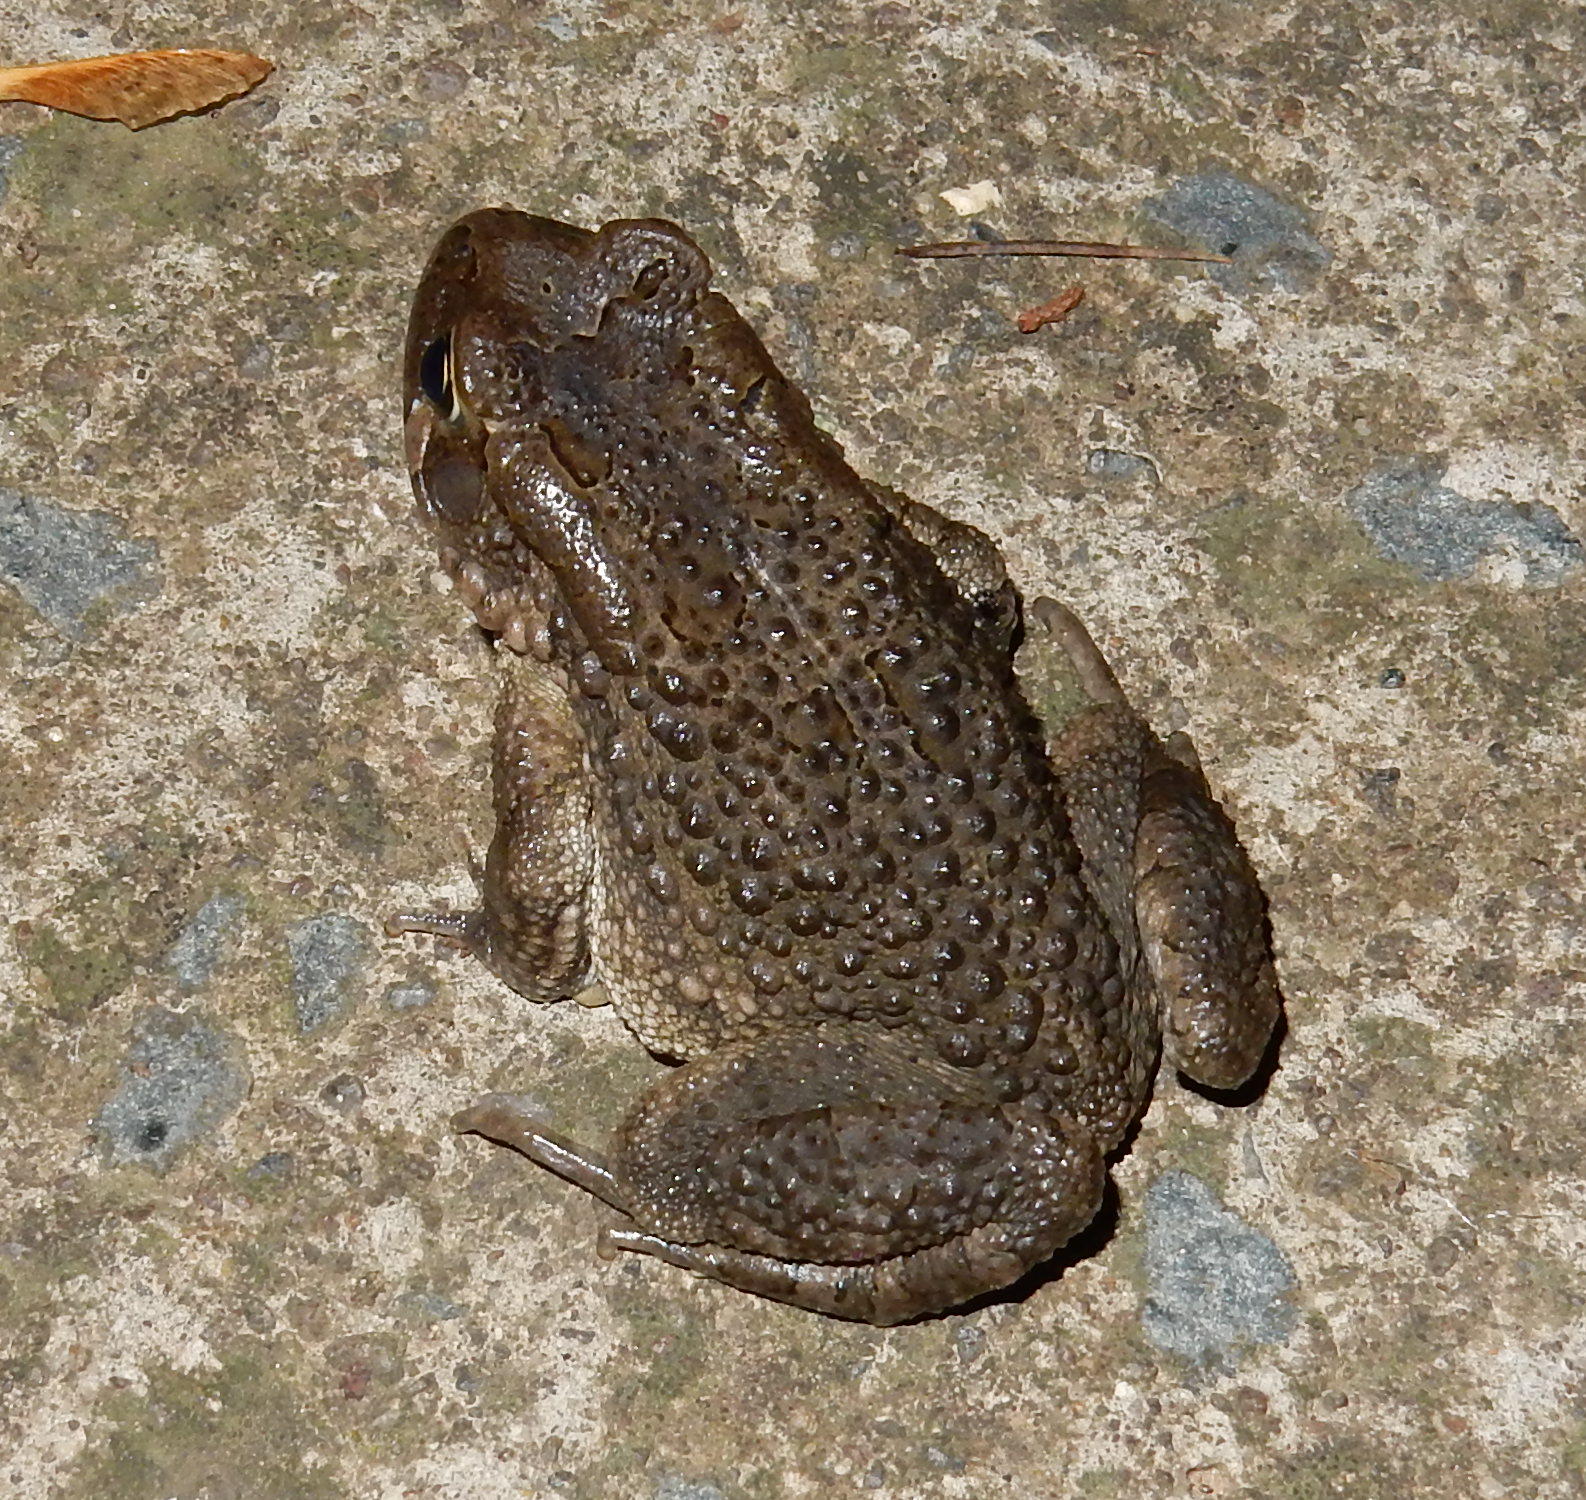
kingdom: Animalia
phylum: Chordata
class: Amphibia
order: Anura
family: Bufonidae
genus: Sclerophrys
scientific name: Sclerophrys capensis
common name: Ranger’s toad
